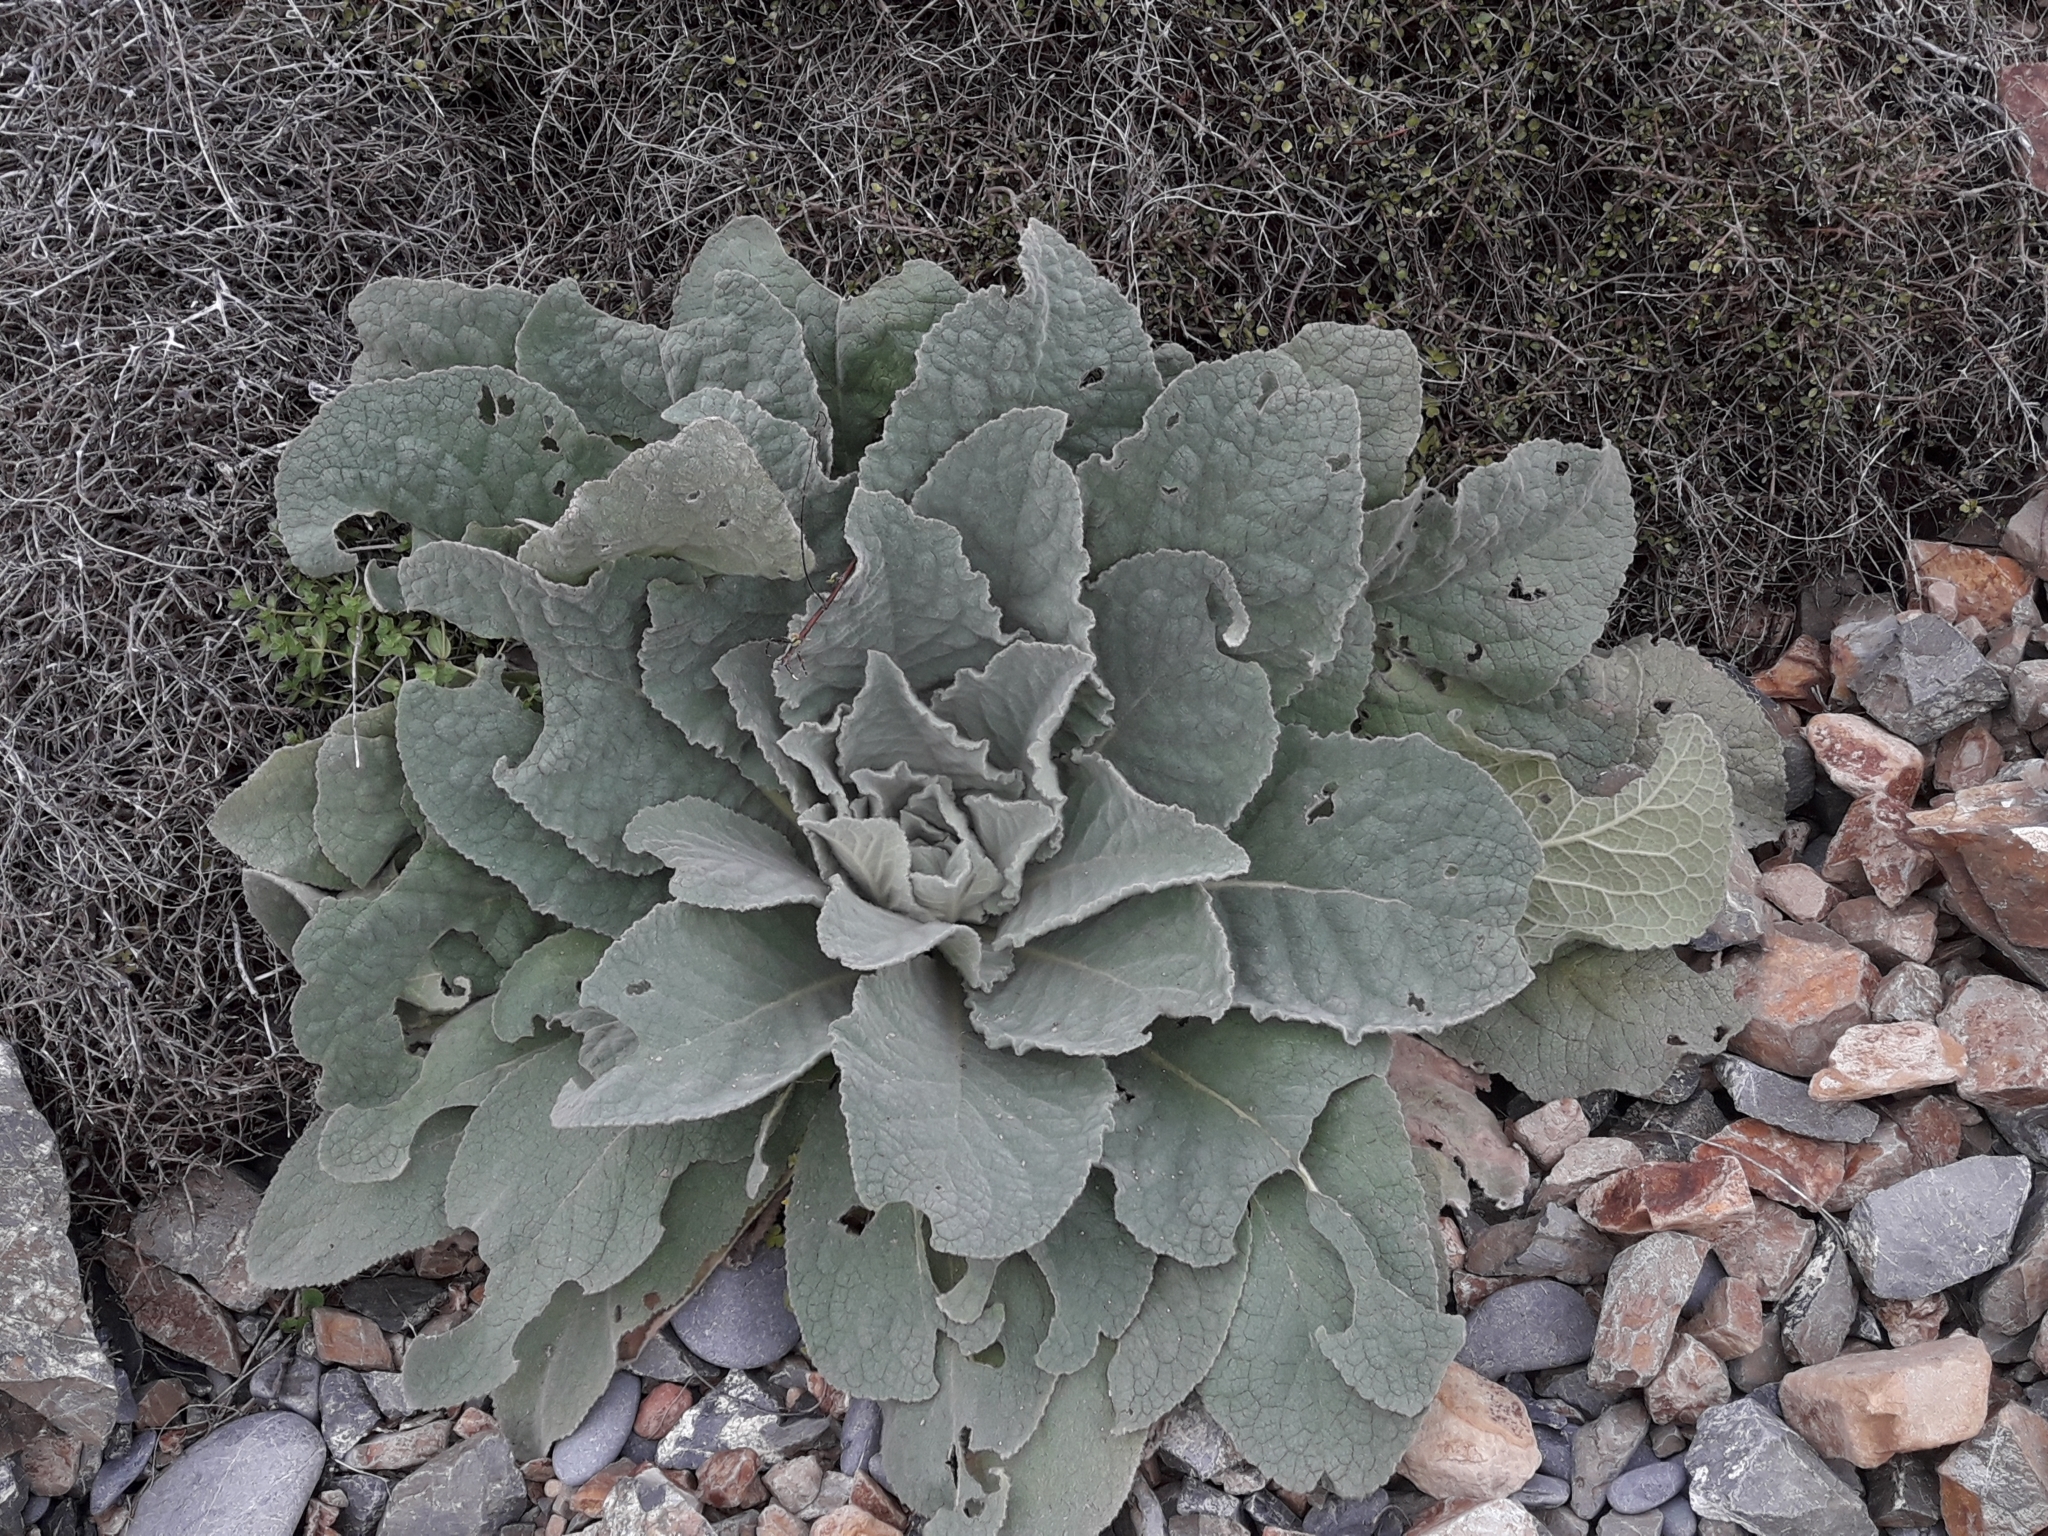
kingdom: Plantae
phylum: Tracheophyta
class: Magnoliopsida
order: Lamiales
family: Scrophulariaceae
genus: Verbascum
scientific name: Verbascum thapsus
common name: Common mullein
